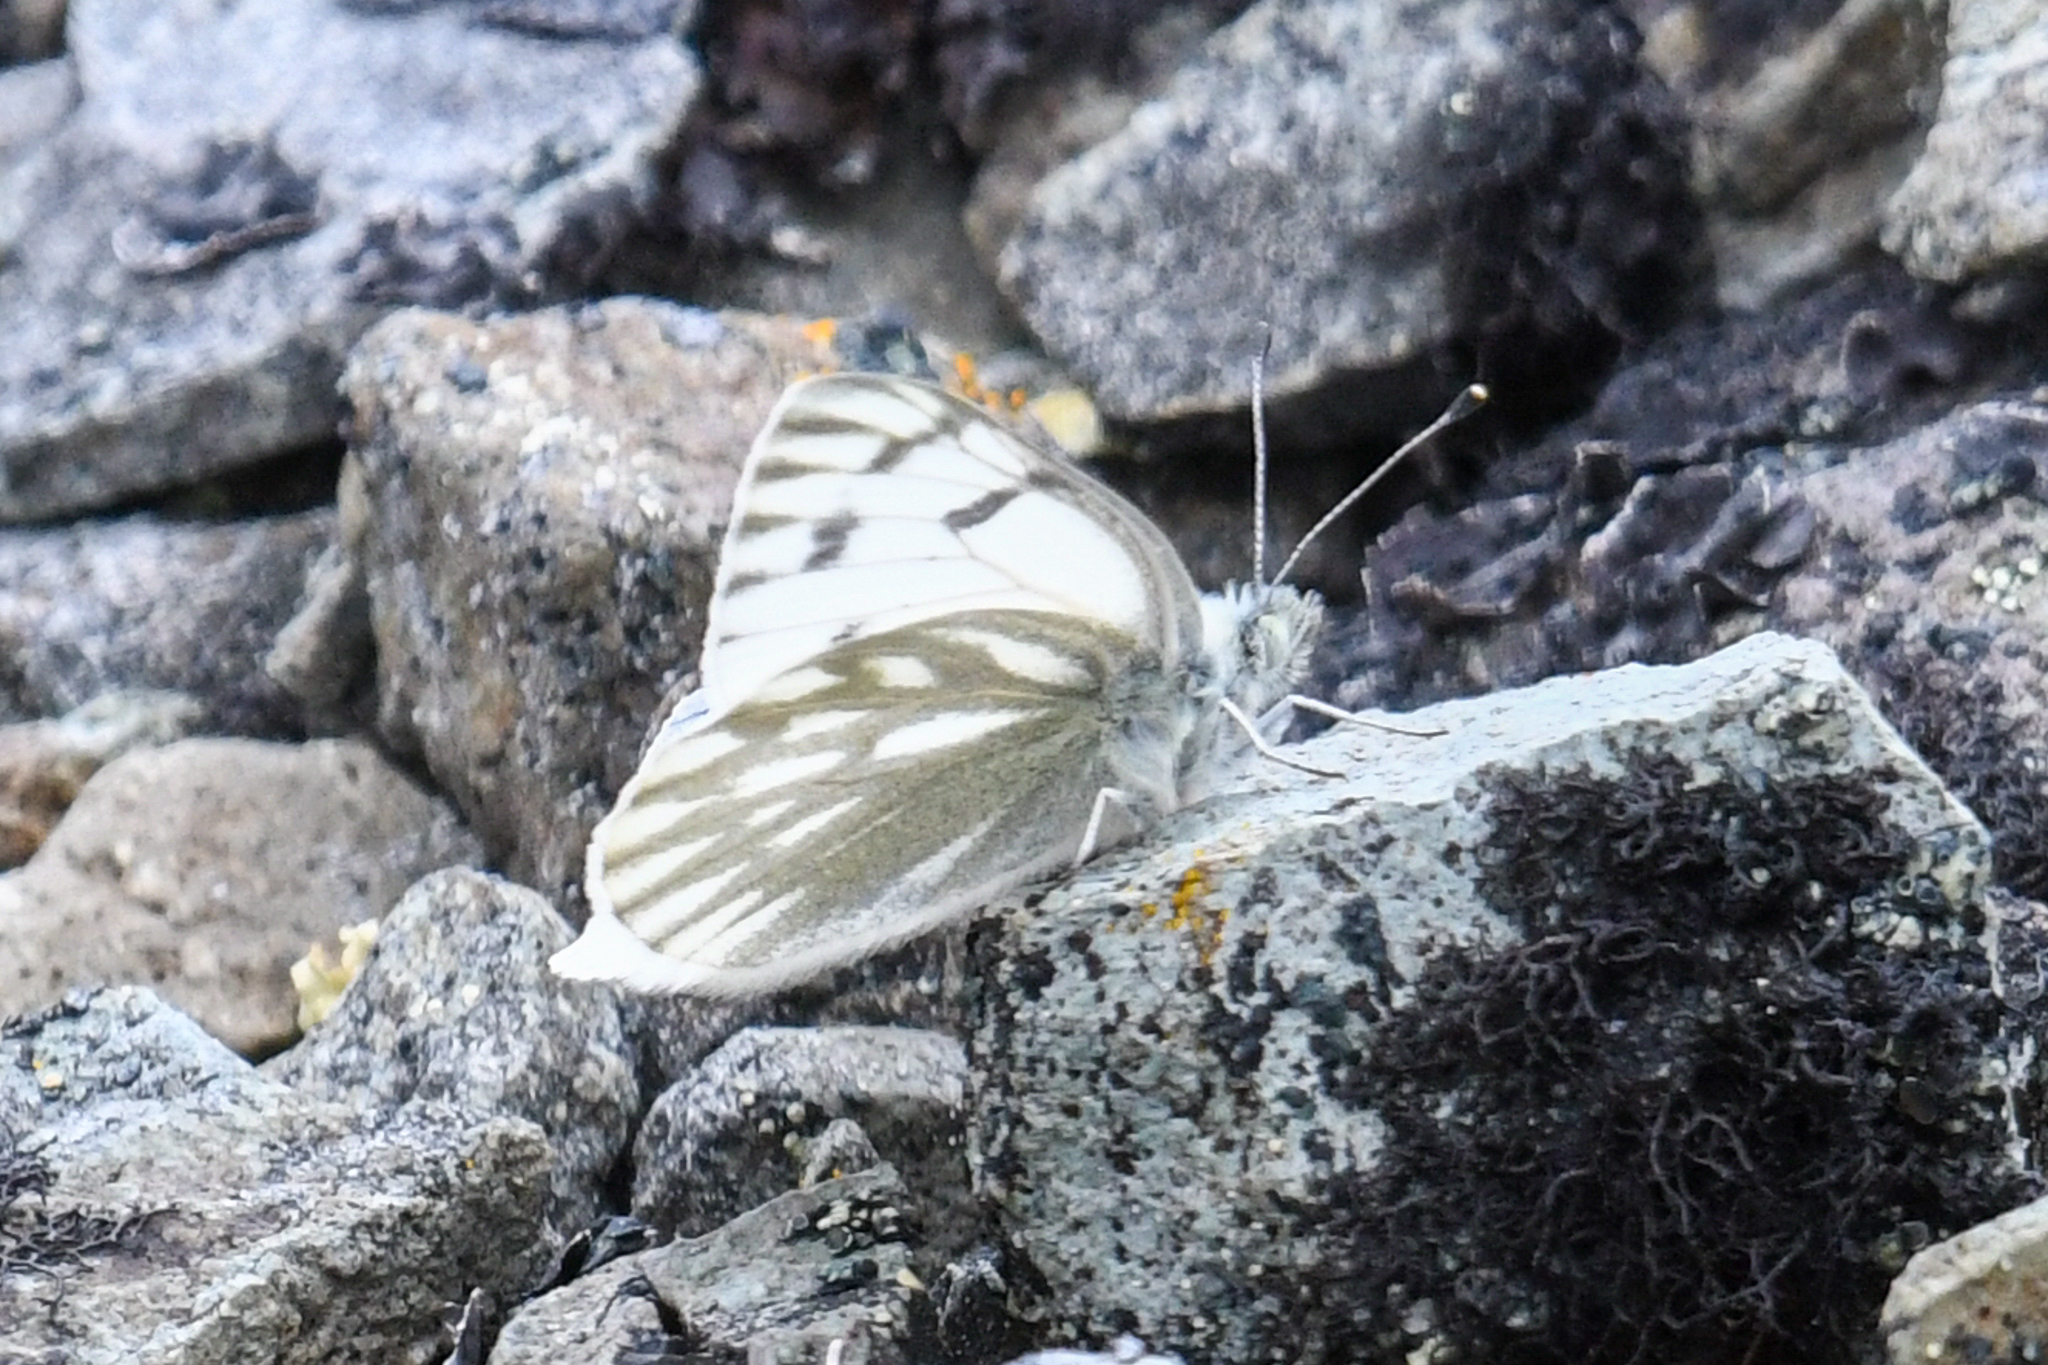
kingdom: Animalia
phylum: Arthropoda
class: Insecta
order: Lepidoptera
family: Pieridae
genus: Pontia
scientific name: Pontia occidentalis
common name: Western white
